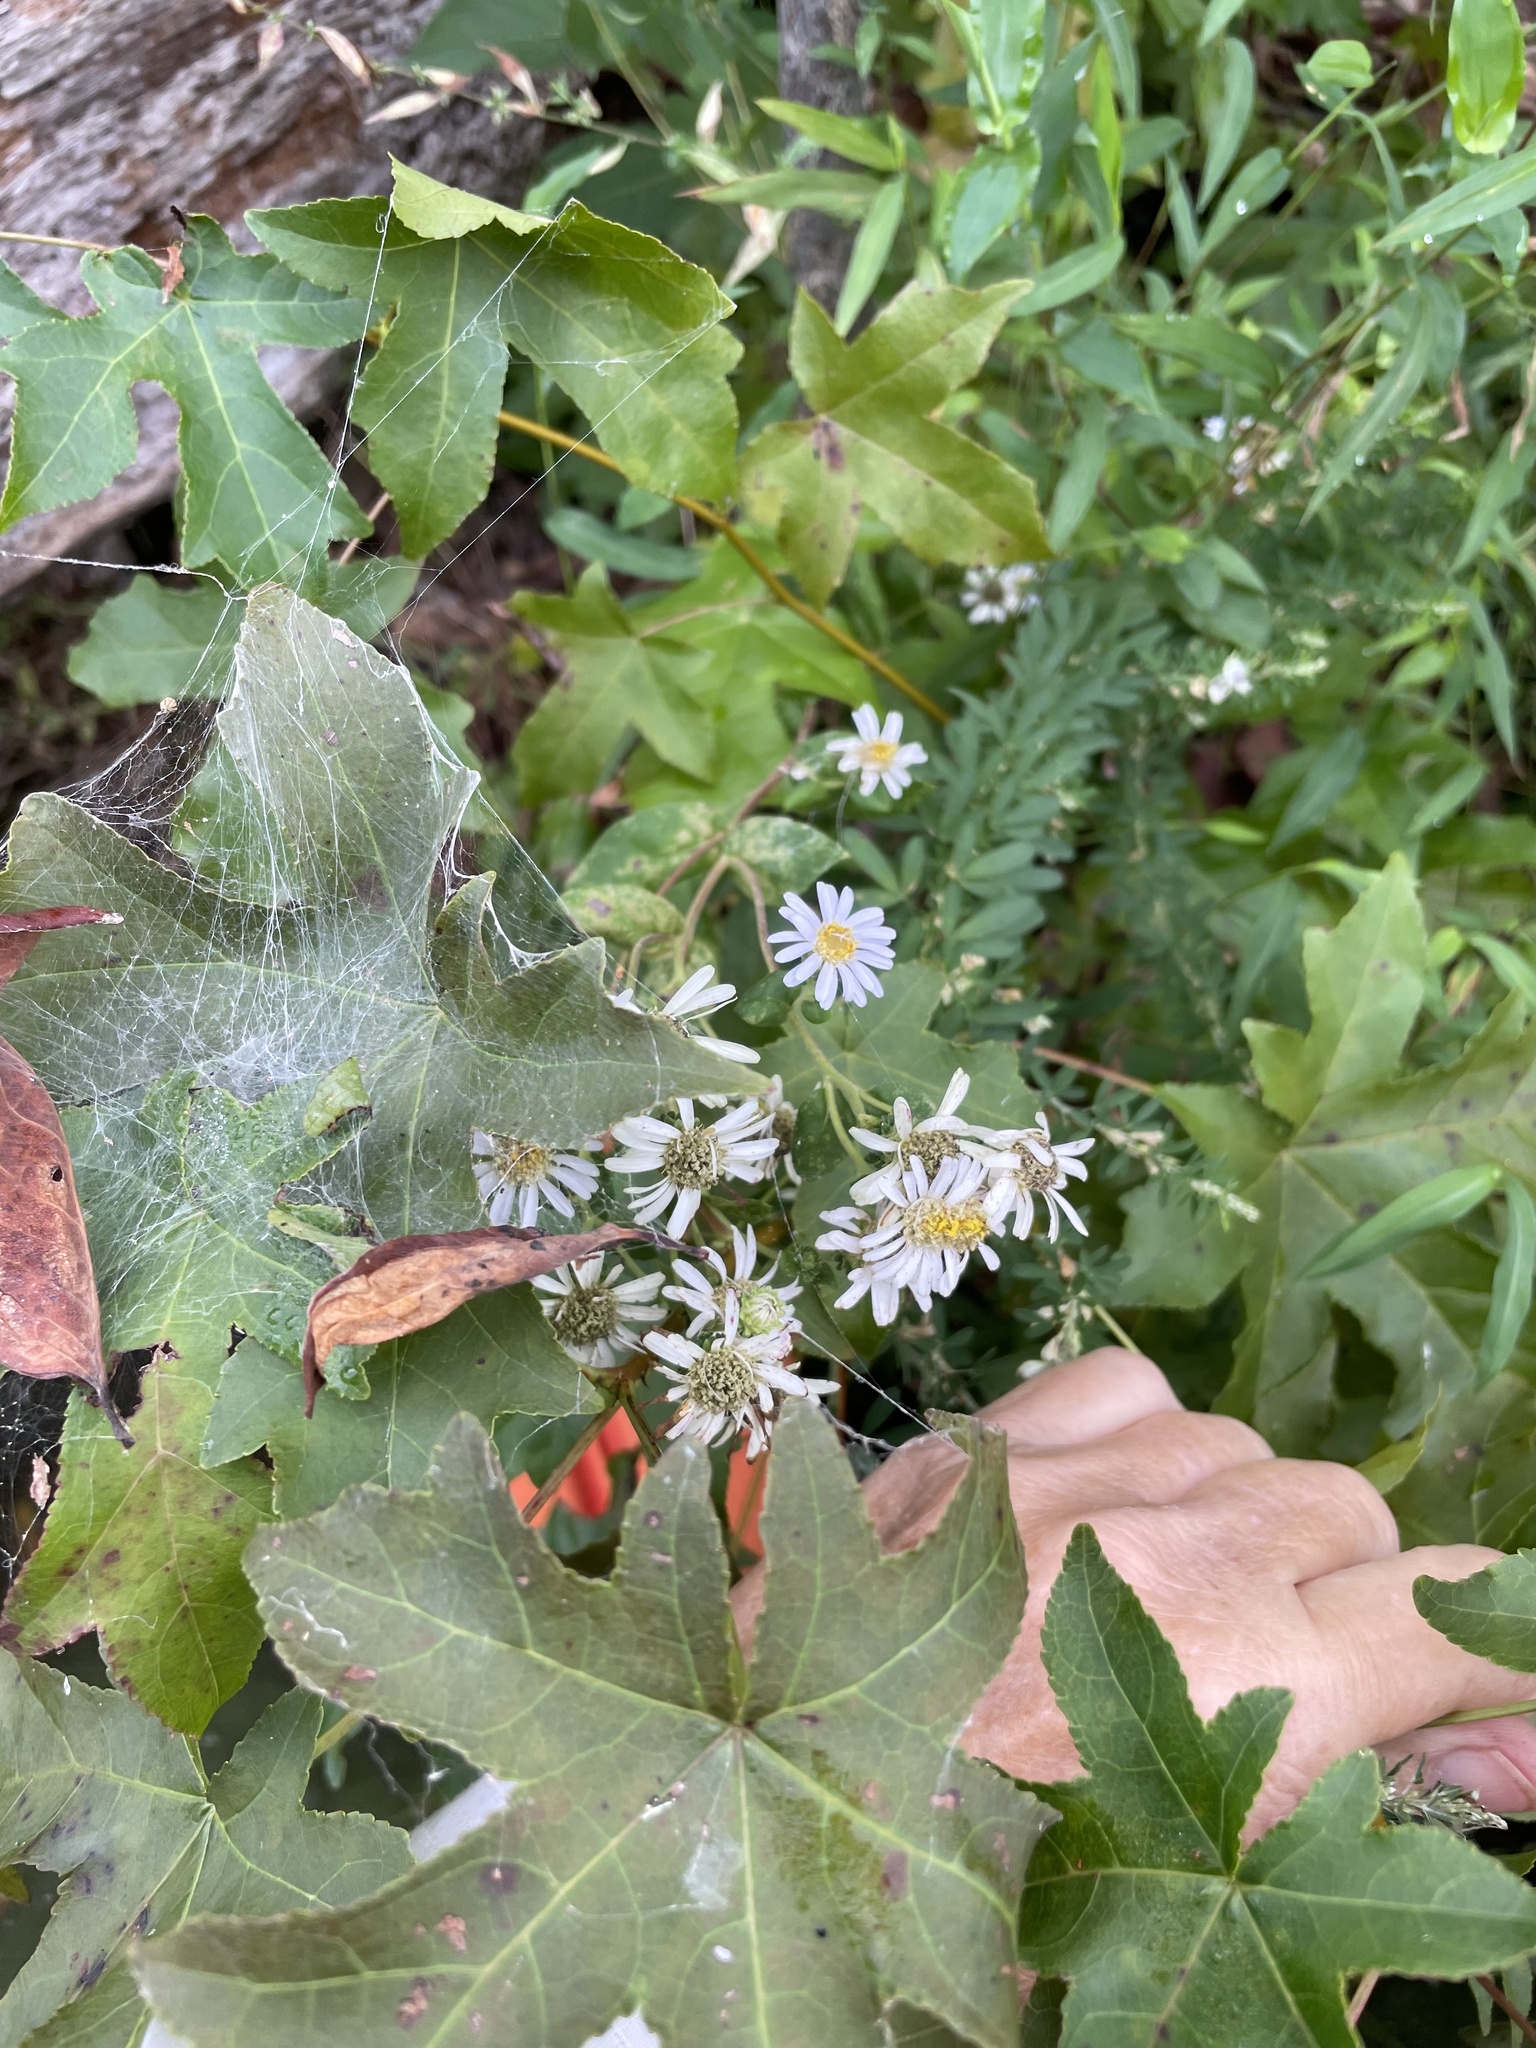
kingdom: Plantae
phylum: Tracheophyta
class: Magnoliopsida
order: Asterales
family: Asteraceae
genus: Eurybia
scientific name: Eurybia mirabilis
